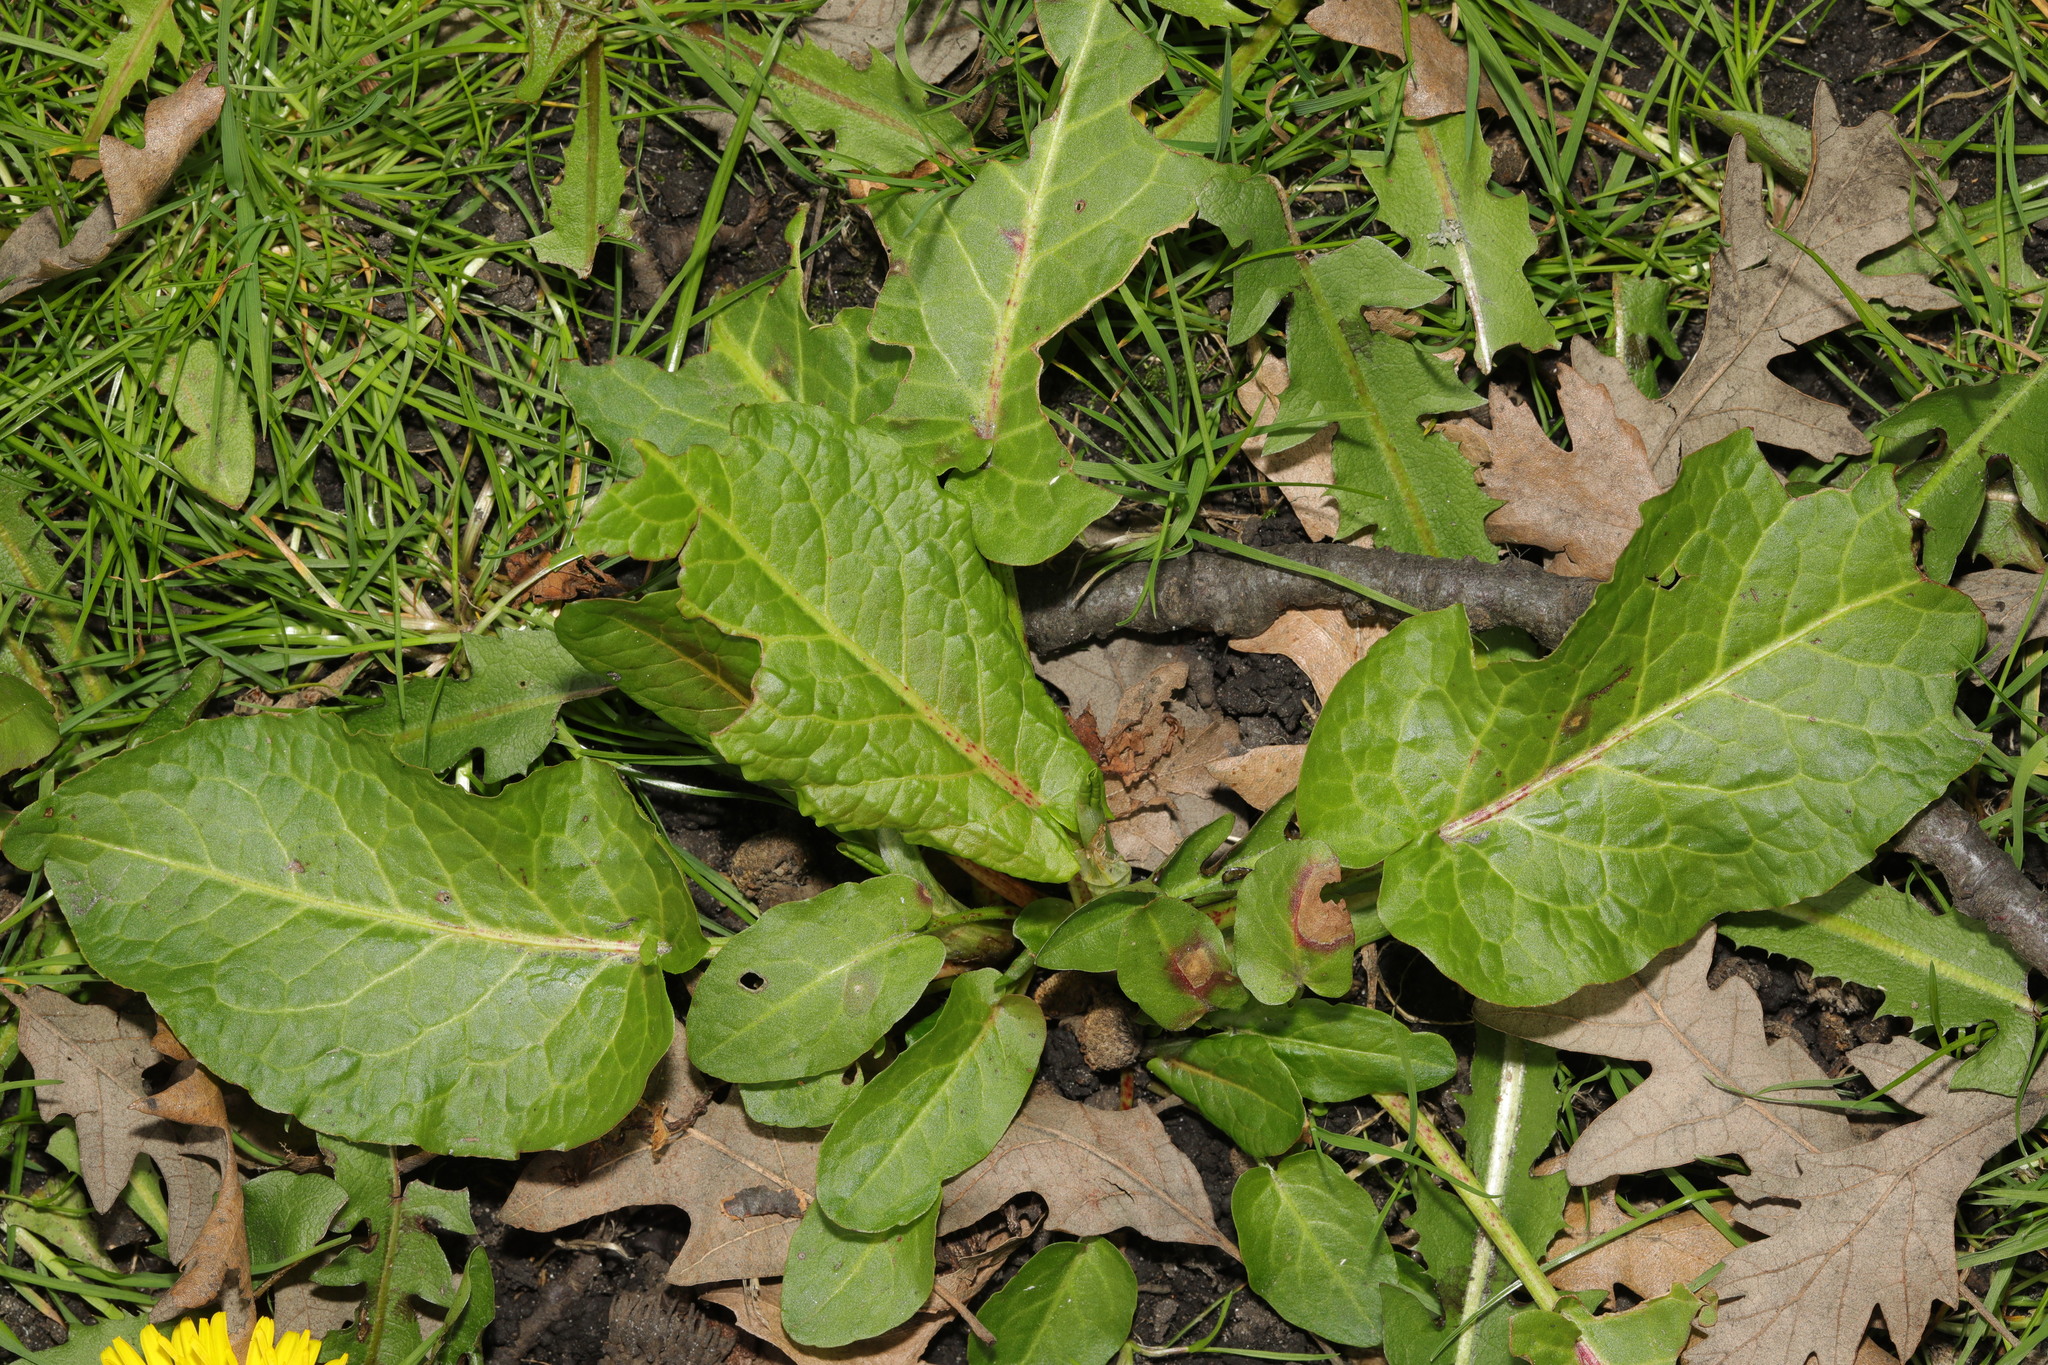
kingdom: Plantae
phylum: Tracheophyta
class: Magnoliopsida
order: Caryophyllales
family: Polygonaceae
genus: Rumex
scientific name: Rumex obtusifolius
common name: Bitter dock
